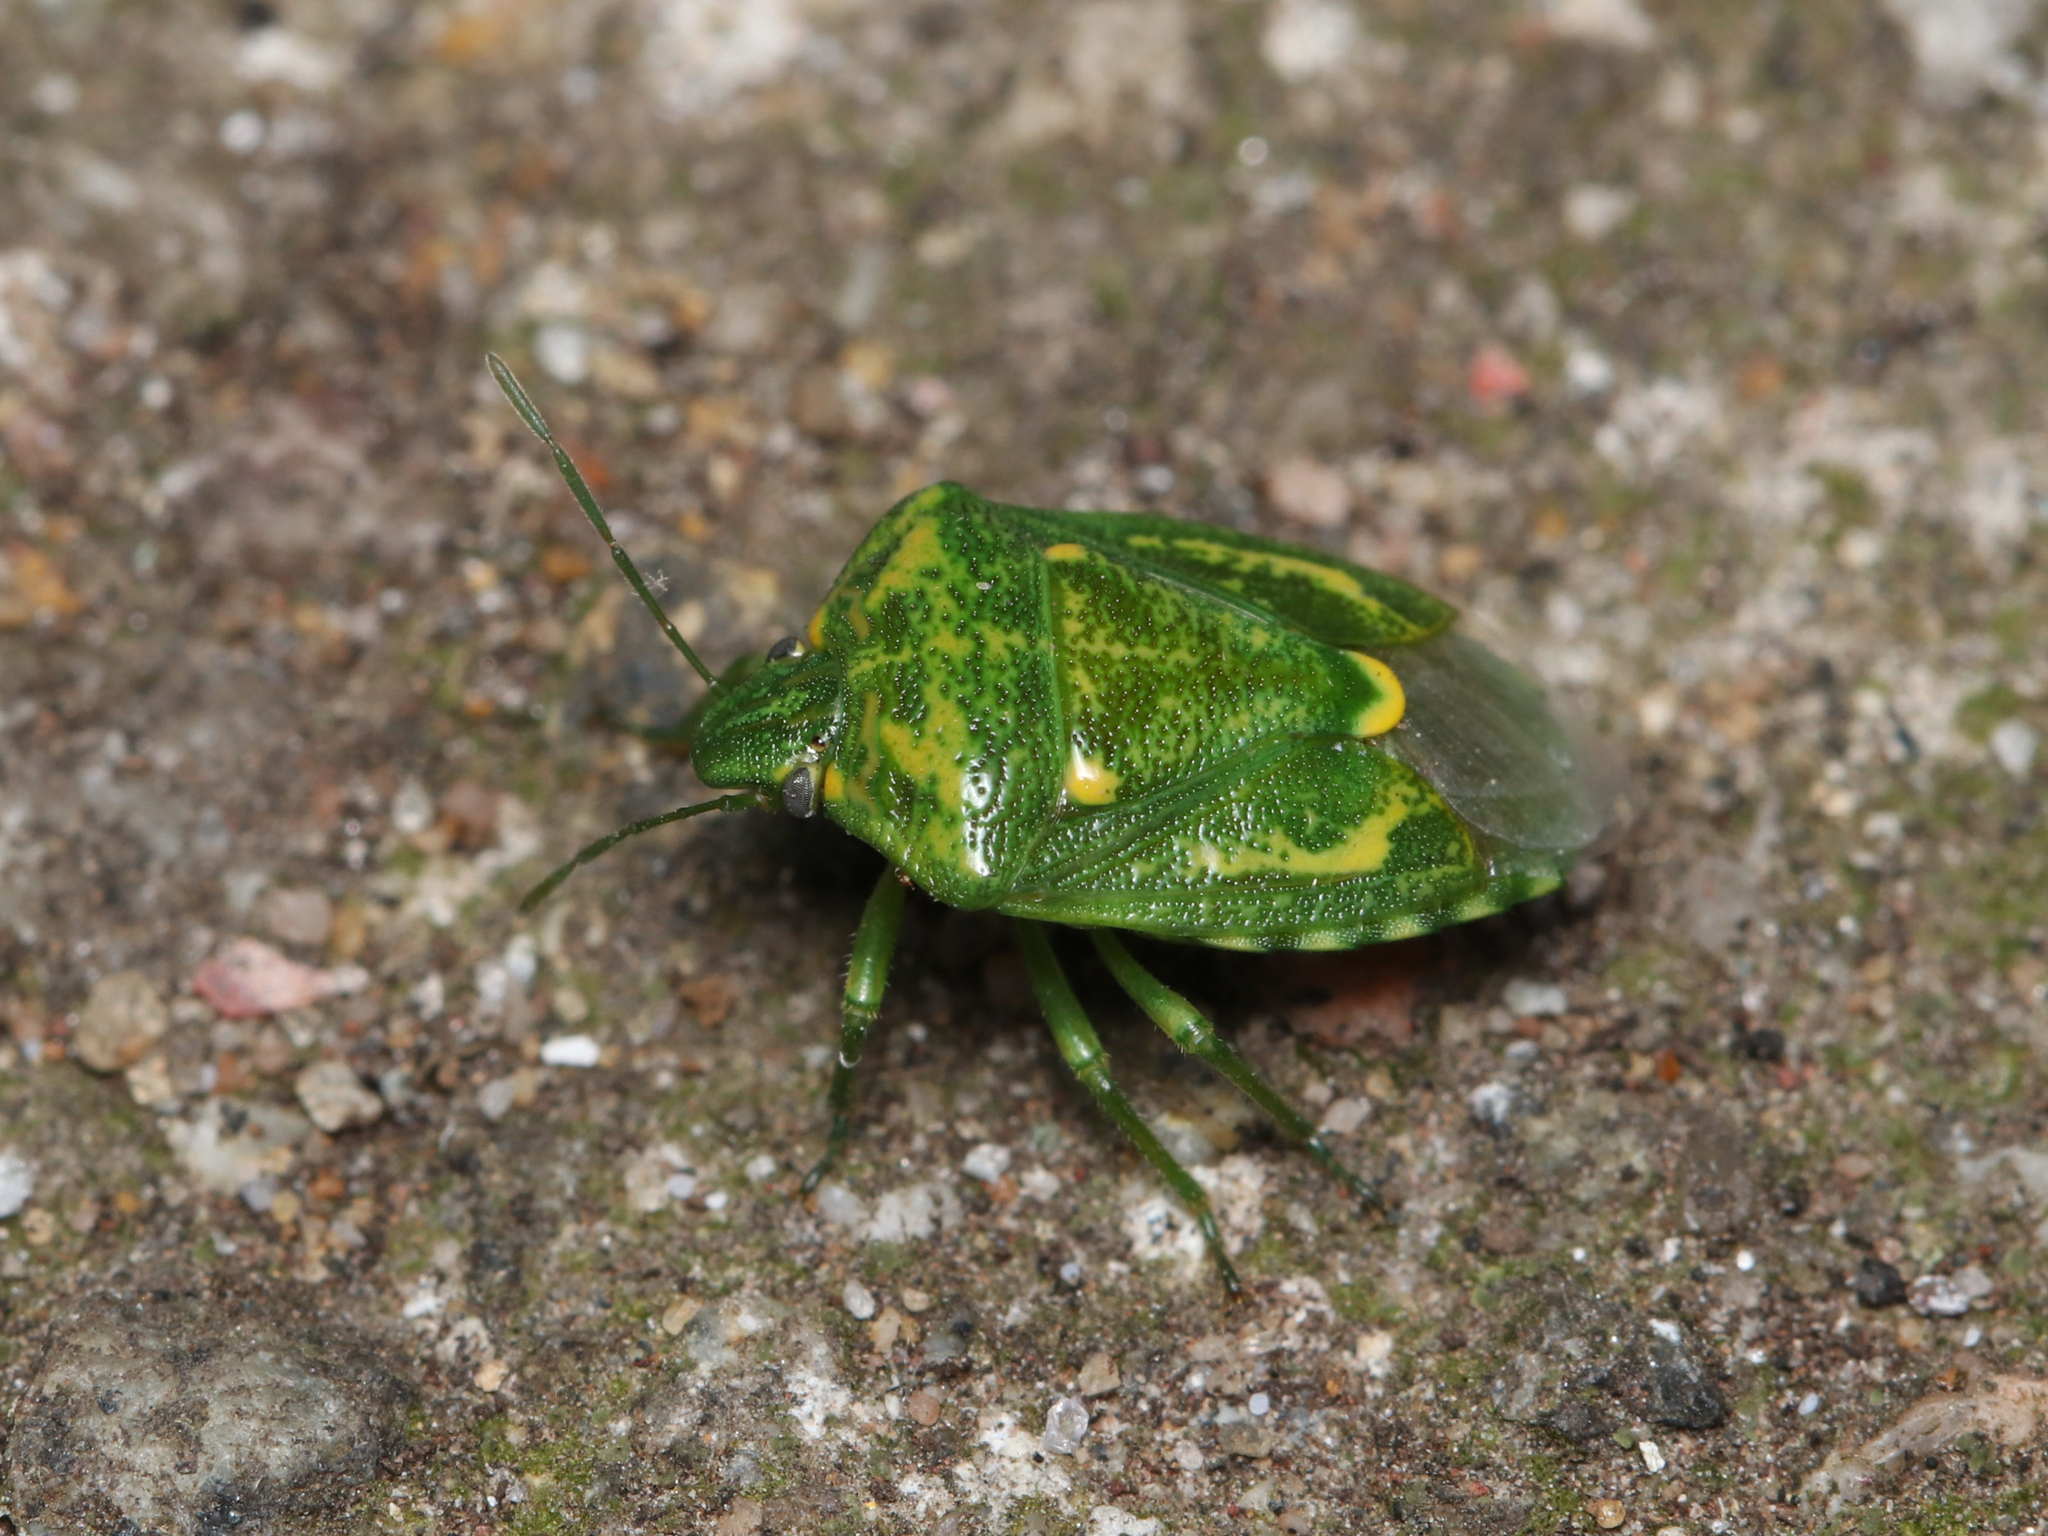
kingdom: Animalia
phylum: Arthropoda
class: Insecta
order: Hemiptera
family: Pentatomidae
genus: Banasa
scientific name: Banasa euchlora
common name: Cedar berry bug
